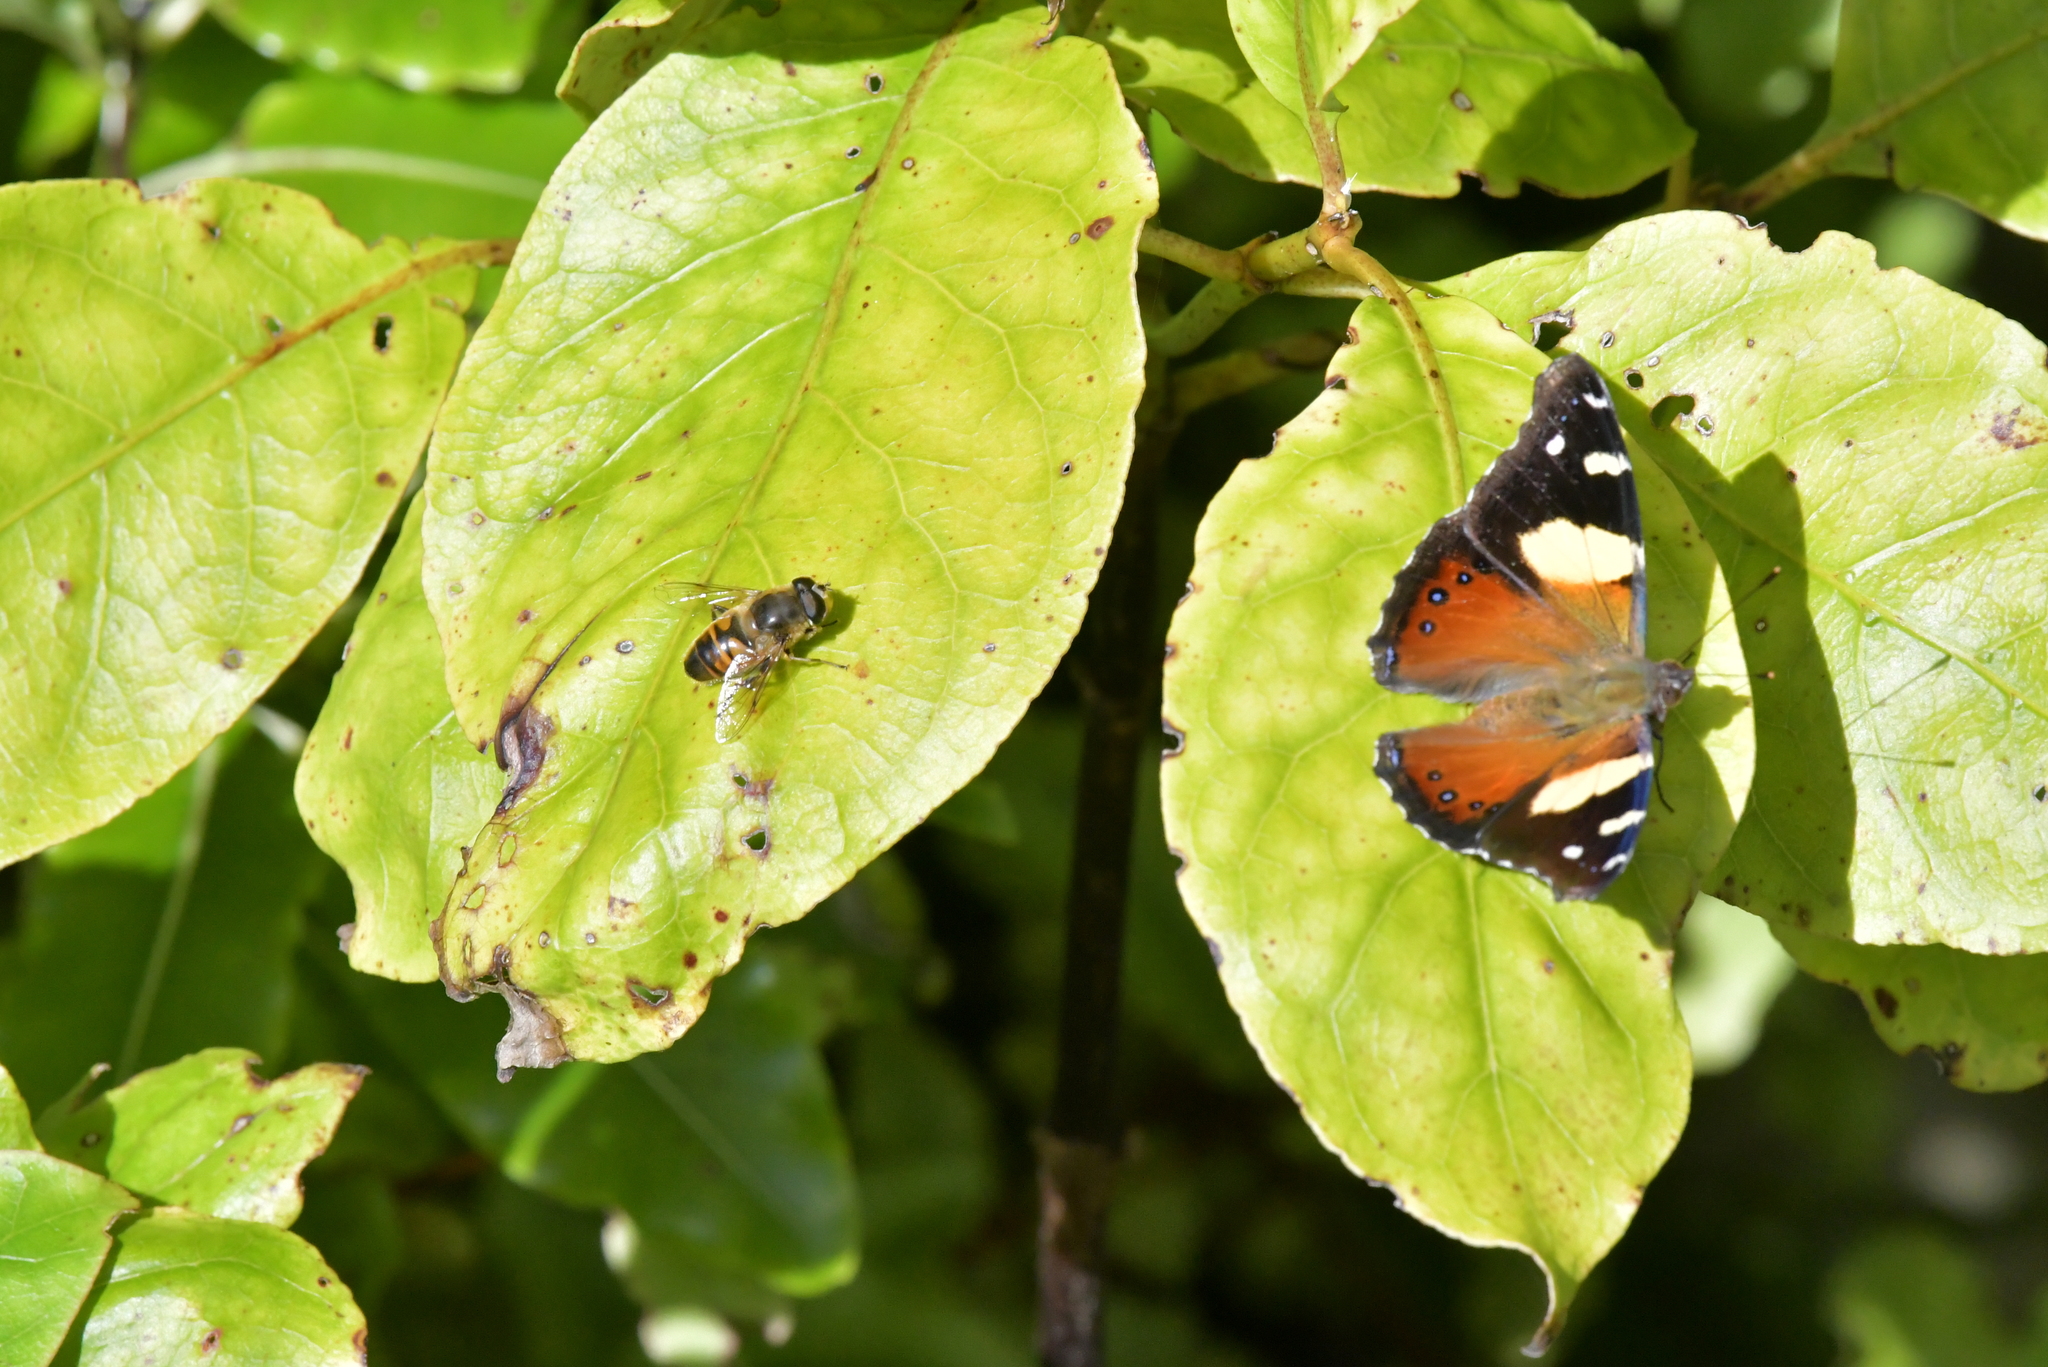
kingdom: Animalia
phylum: Arthropoda
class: Insecta
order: Diptera
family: Syrphidae
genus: Eristalis
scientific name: Eristalis tenax
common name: Drone fly
